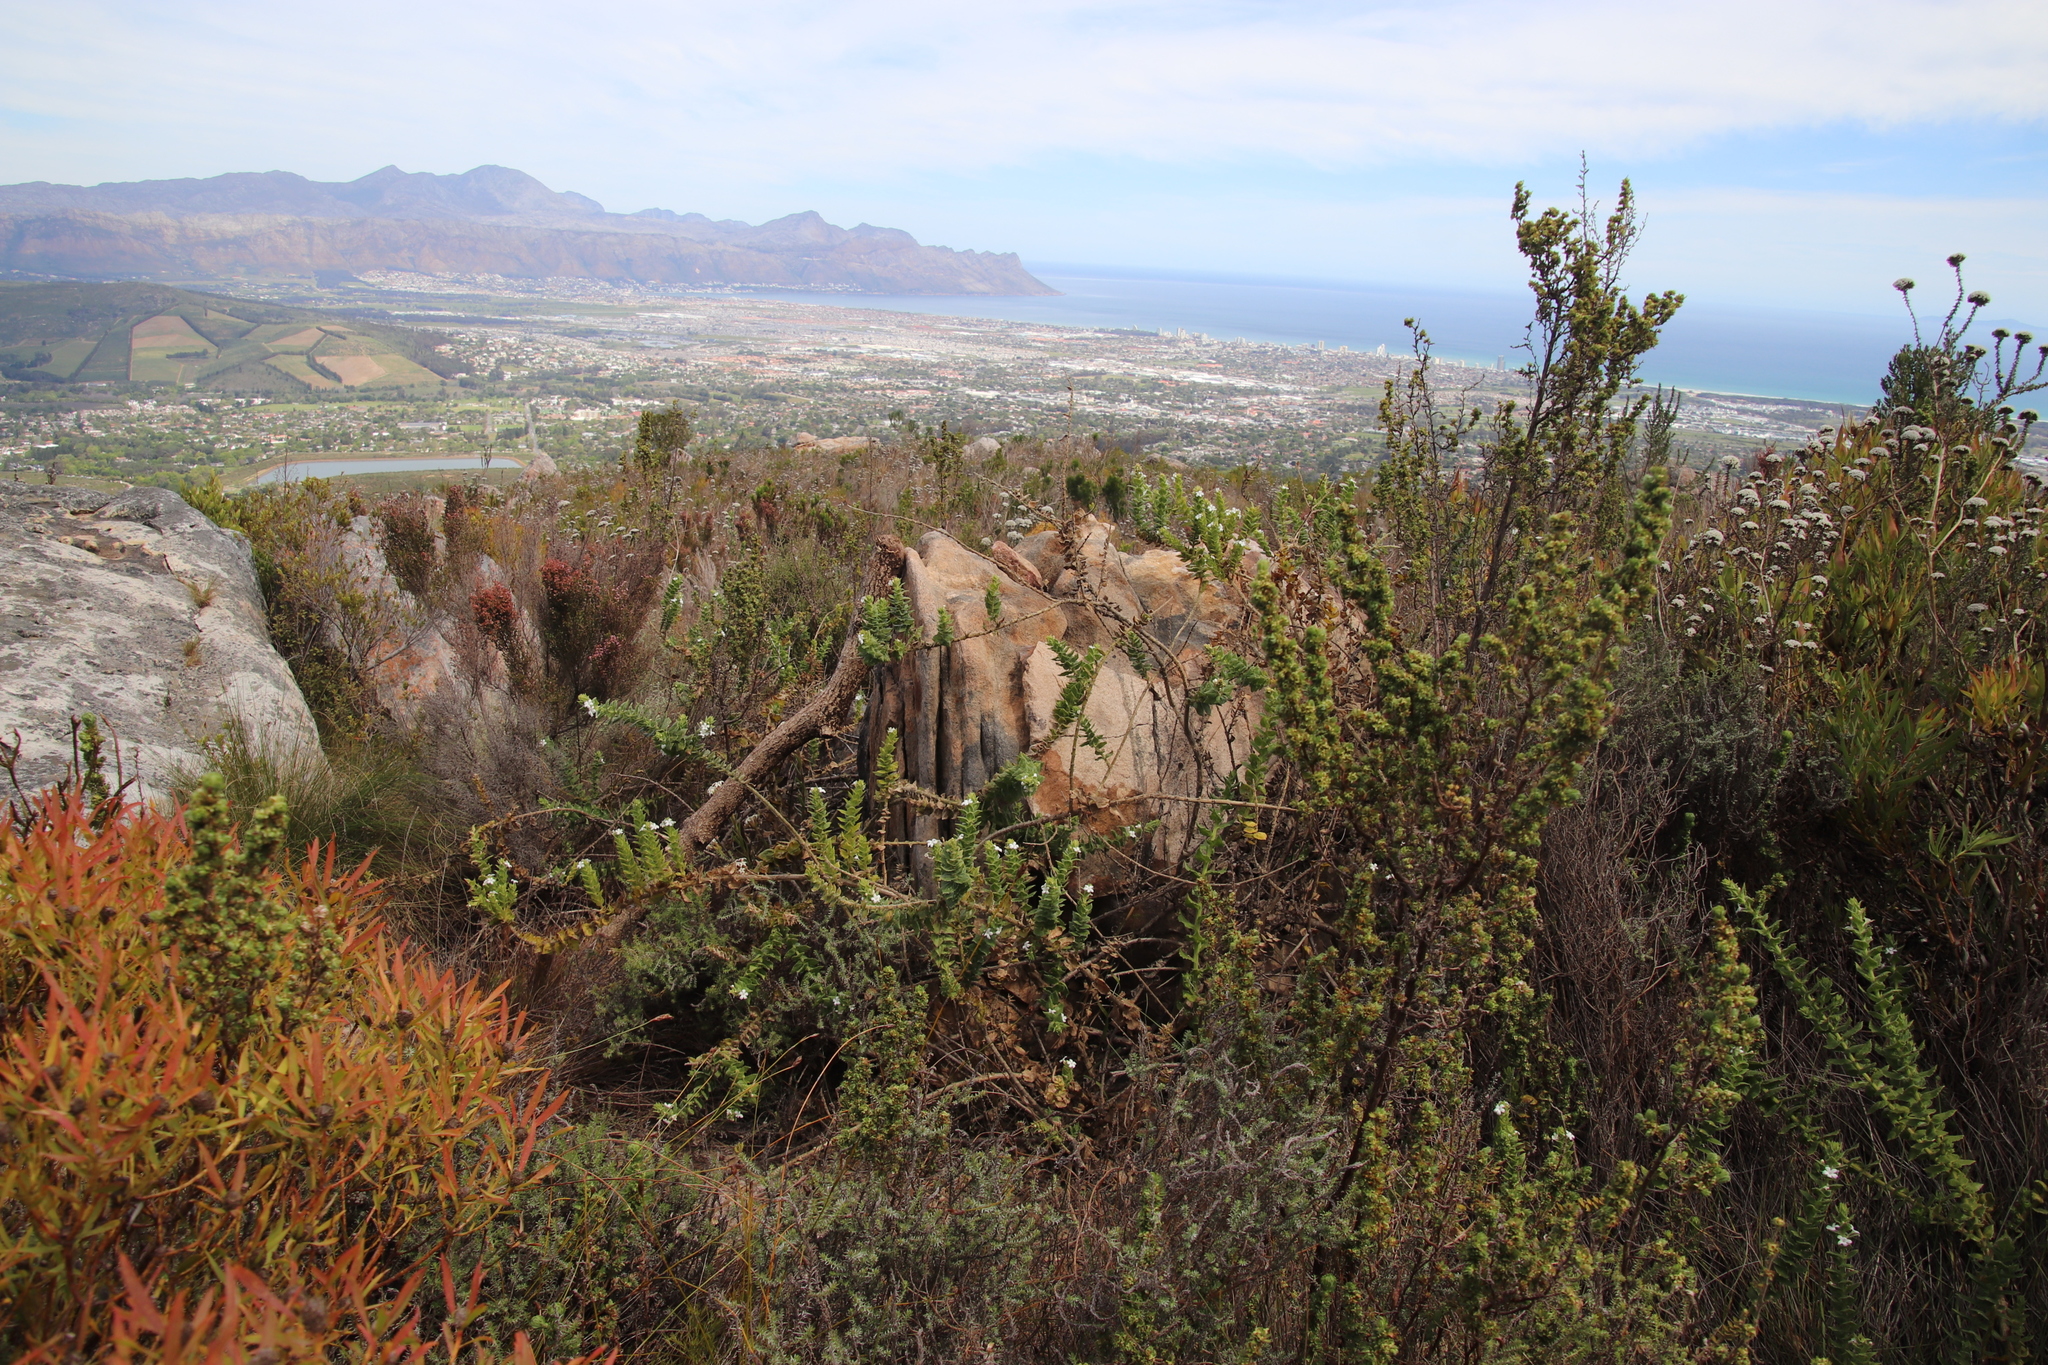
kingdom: Plantae
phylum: Tracheophyta
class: Magnoliopsida
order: Lamiales
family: Scrophulariaceae
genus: Oftia
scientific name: Oftia africana
